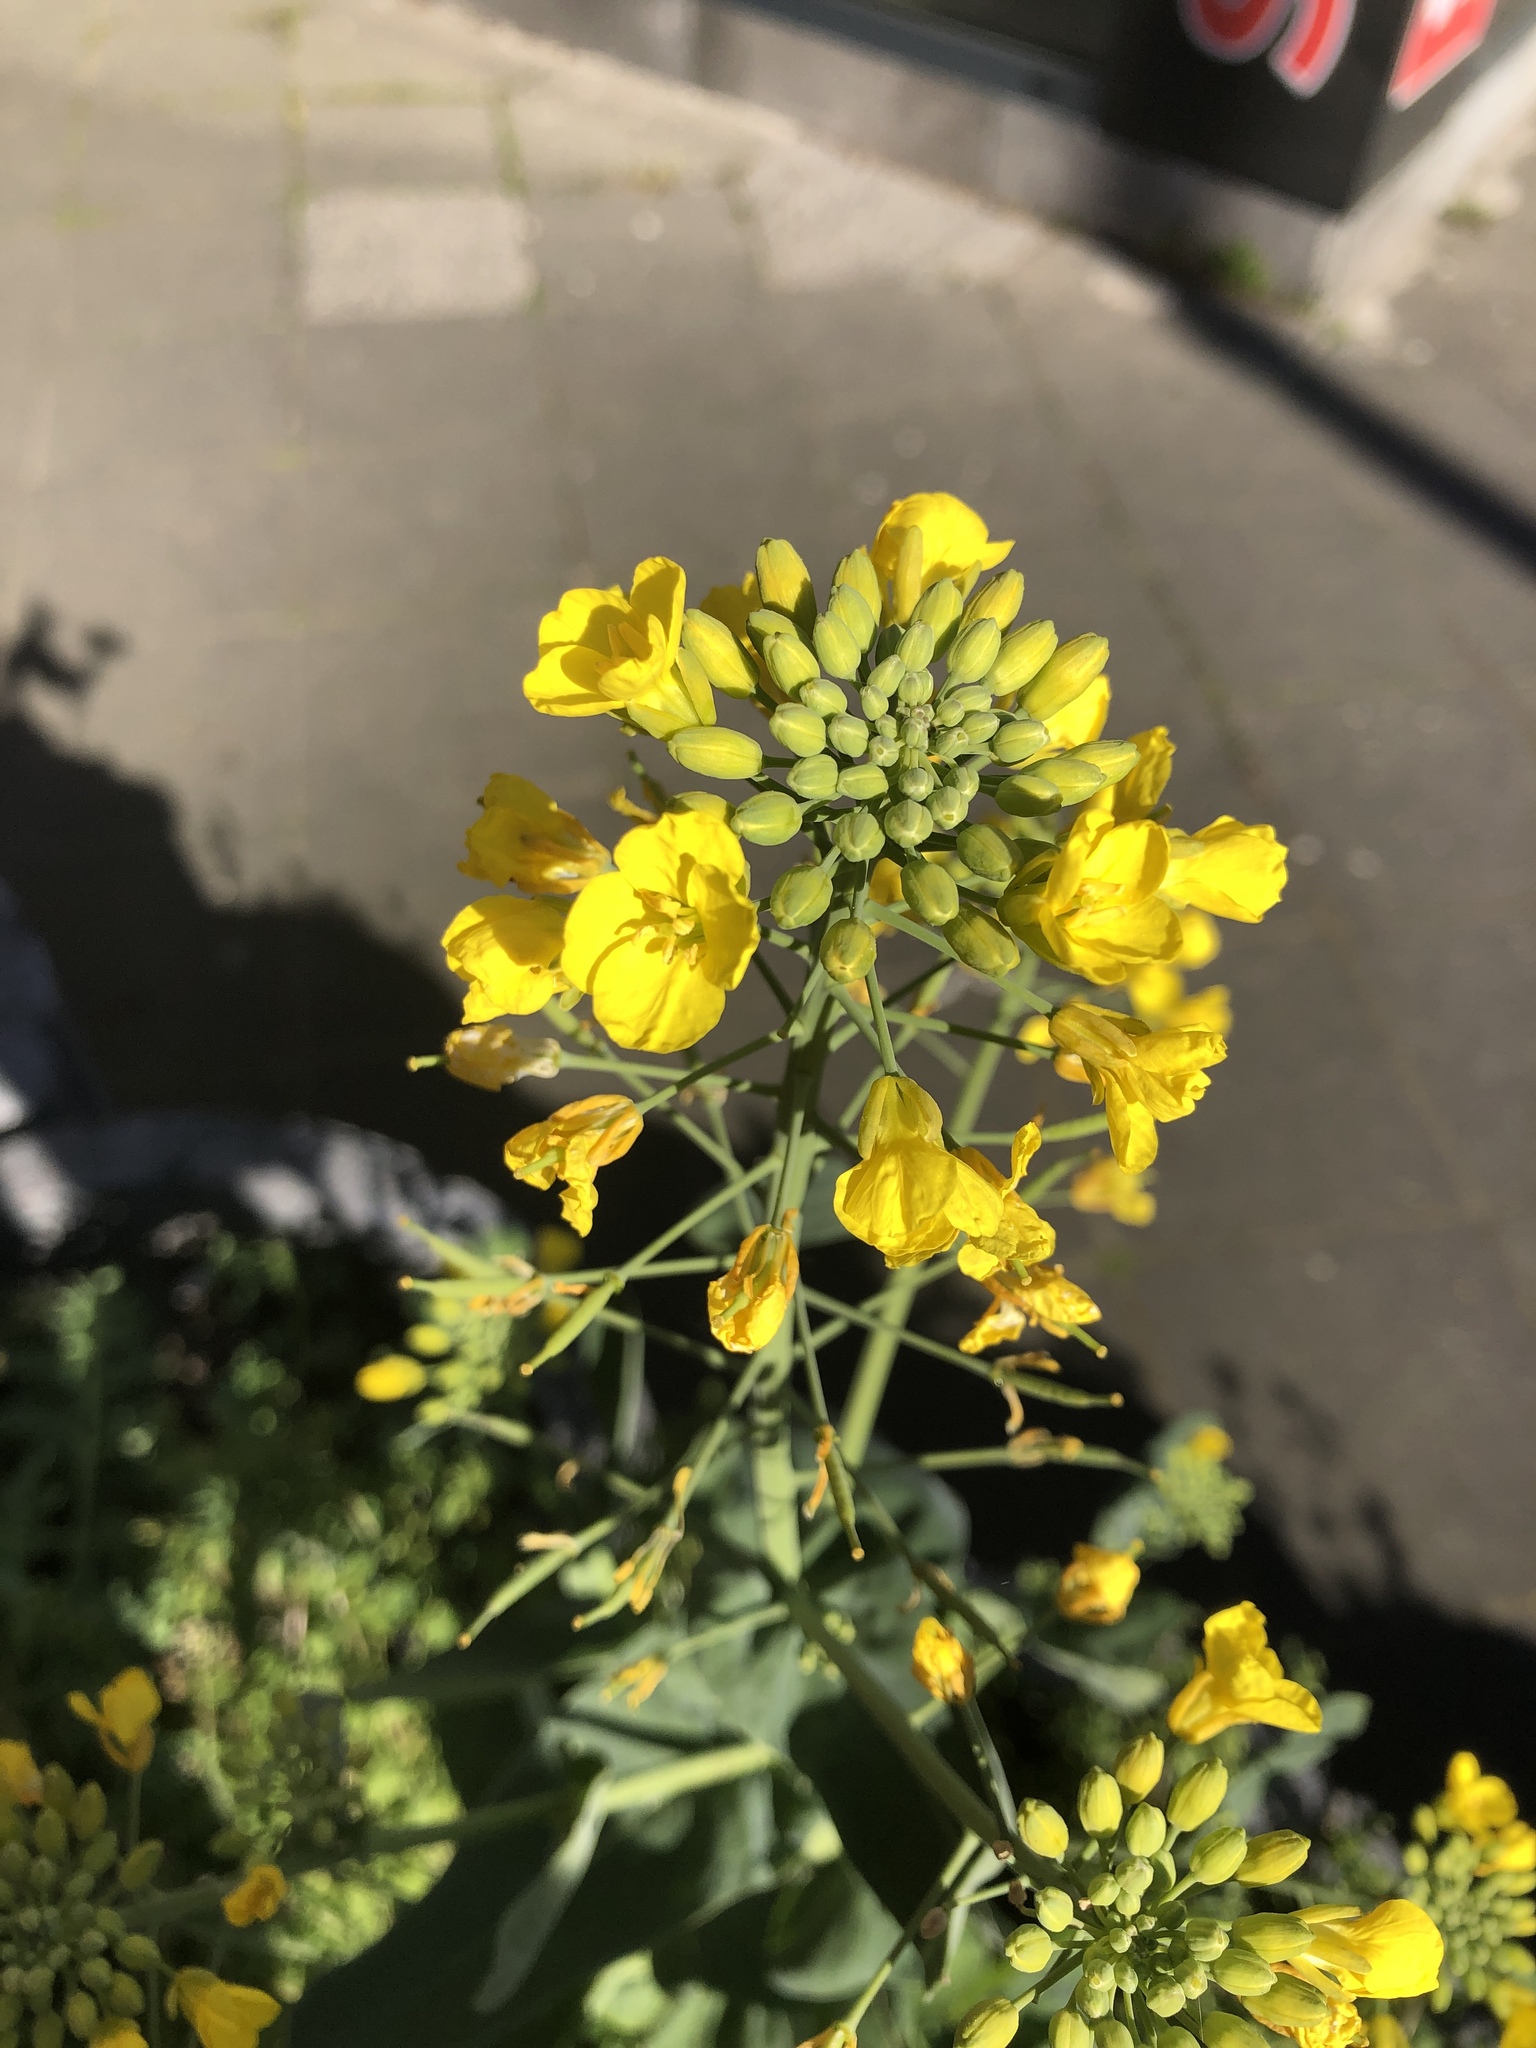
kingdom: Plantae
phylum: Tracheophyta
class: Magnoliopsida
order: Brassicales
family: Brassicaceae
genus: Brassica
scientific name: Brassica rapa
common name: Field mustard
